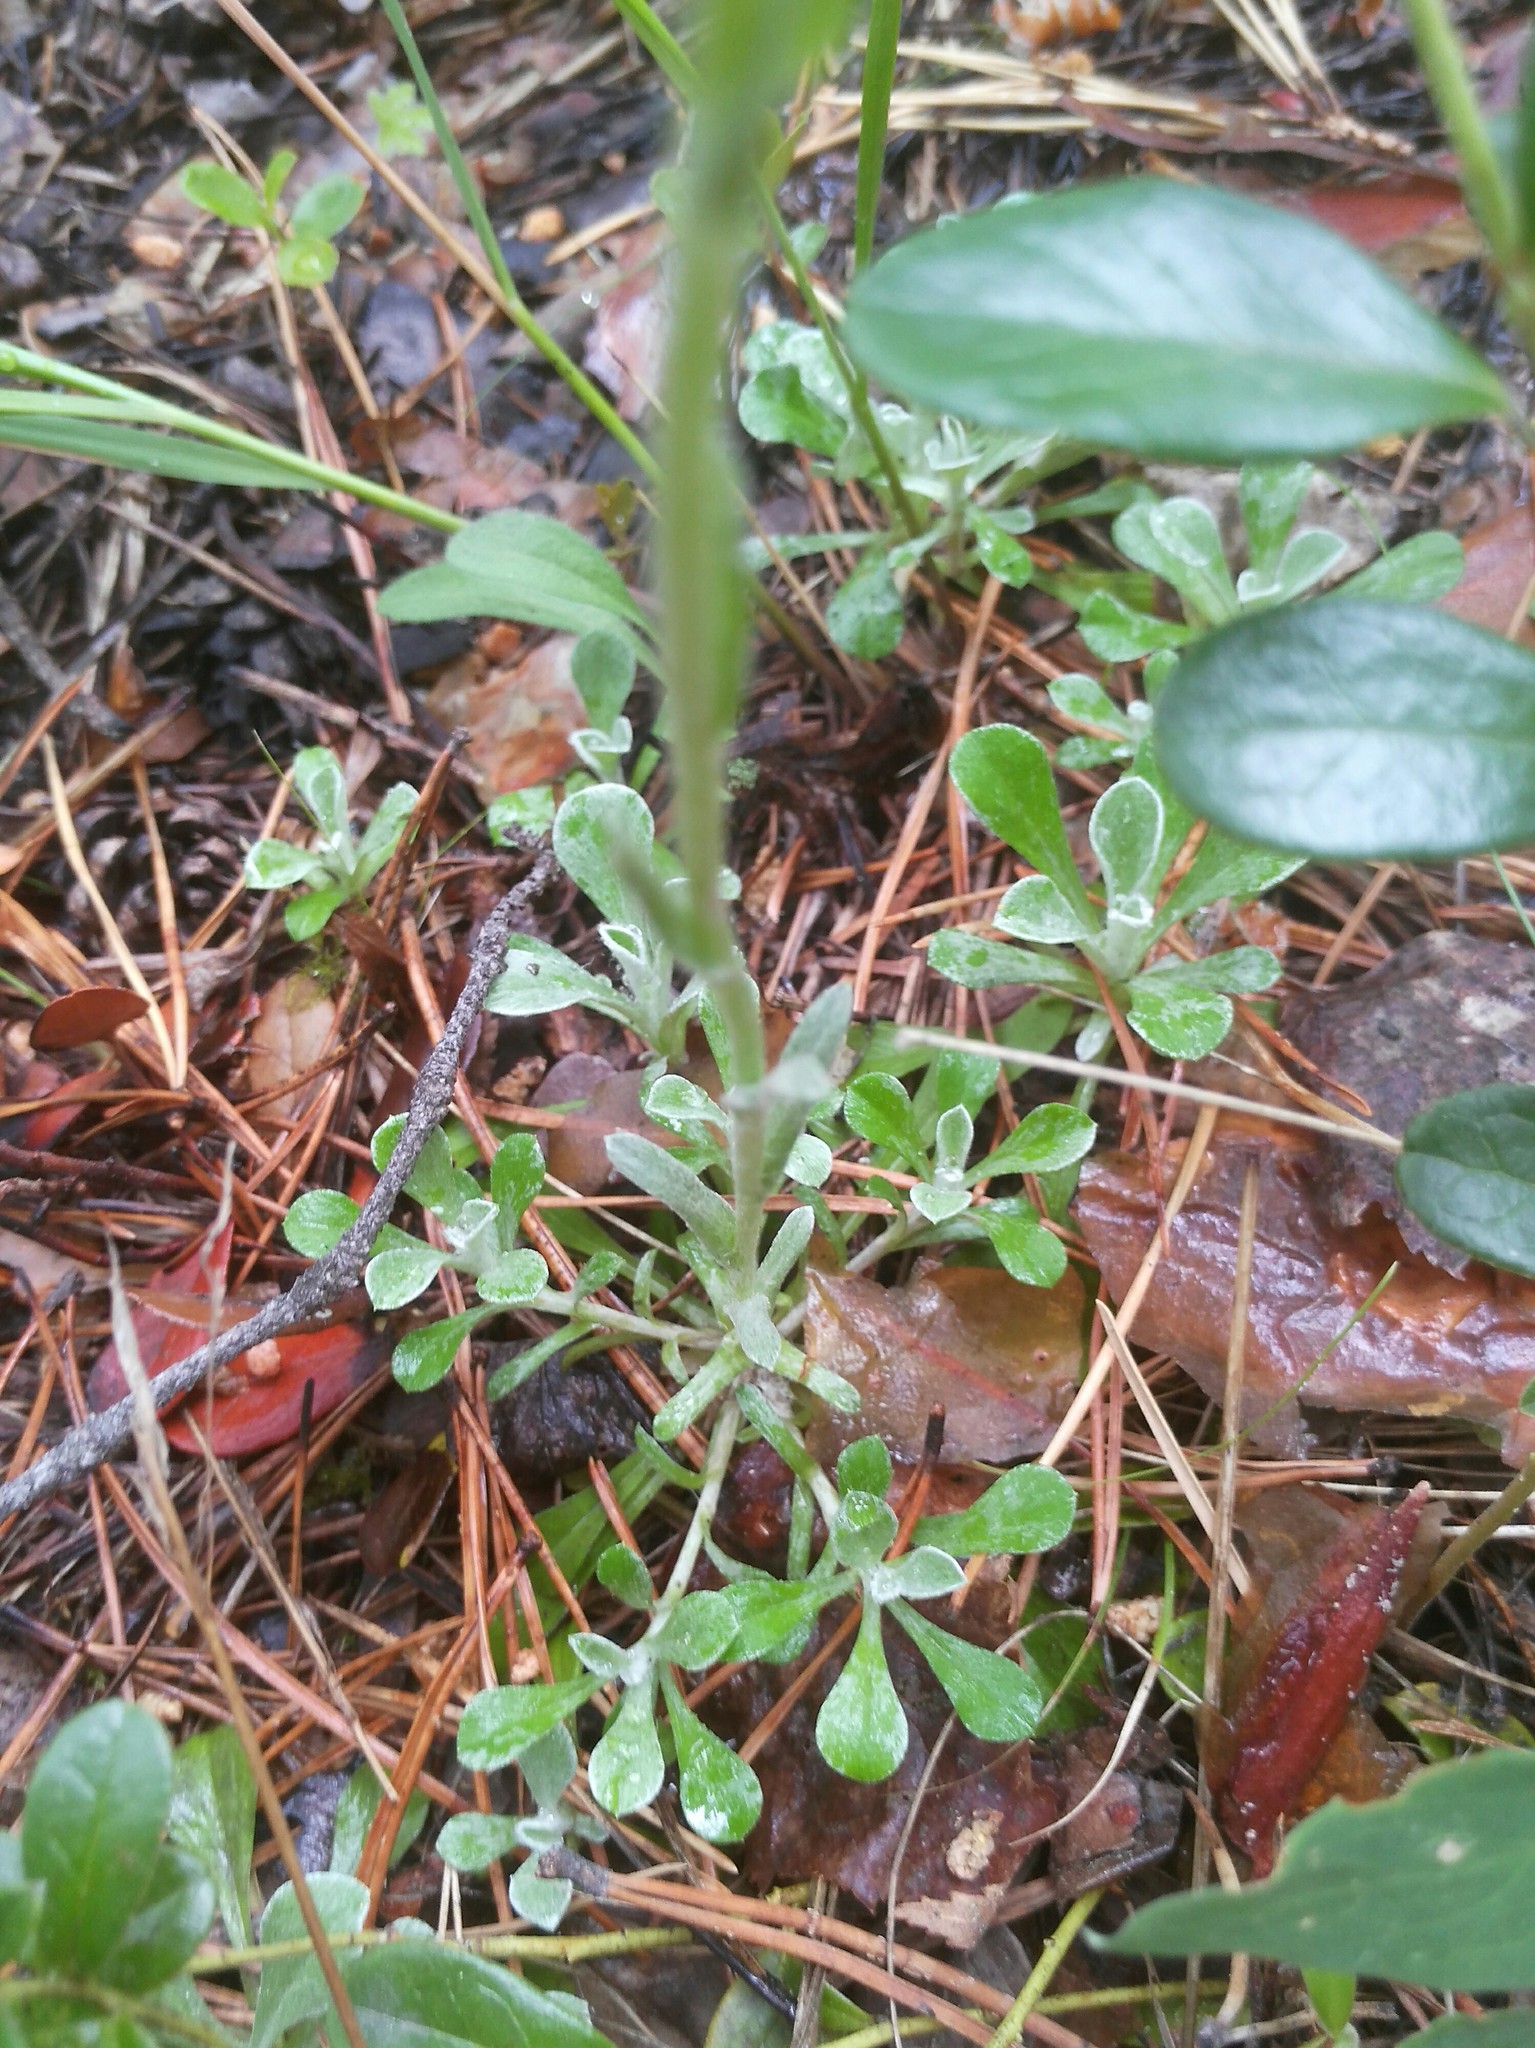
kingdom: Plantae
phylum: Tracheophyta
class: Magnoliopsida
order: Asterales
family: Asteraceae
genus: Antennaria
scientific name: Antennaria dioica
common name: Mountain everlasting
